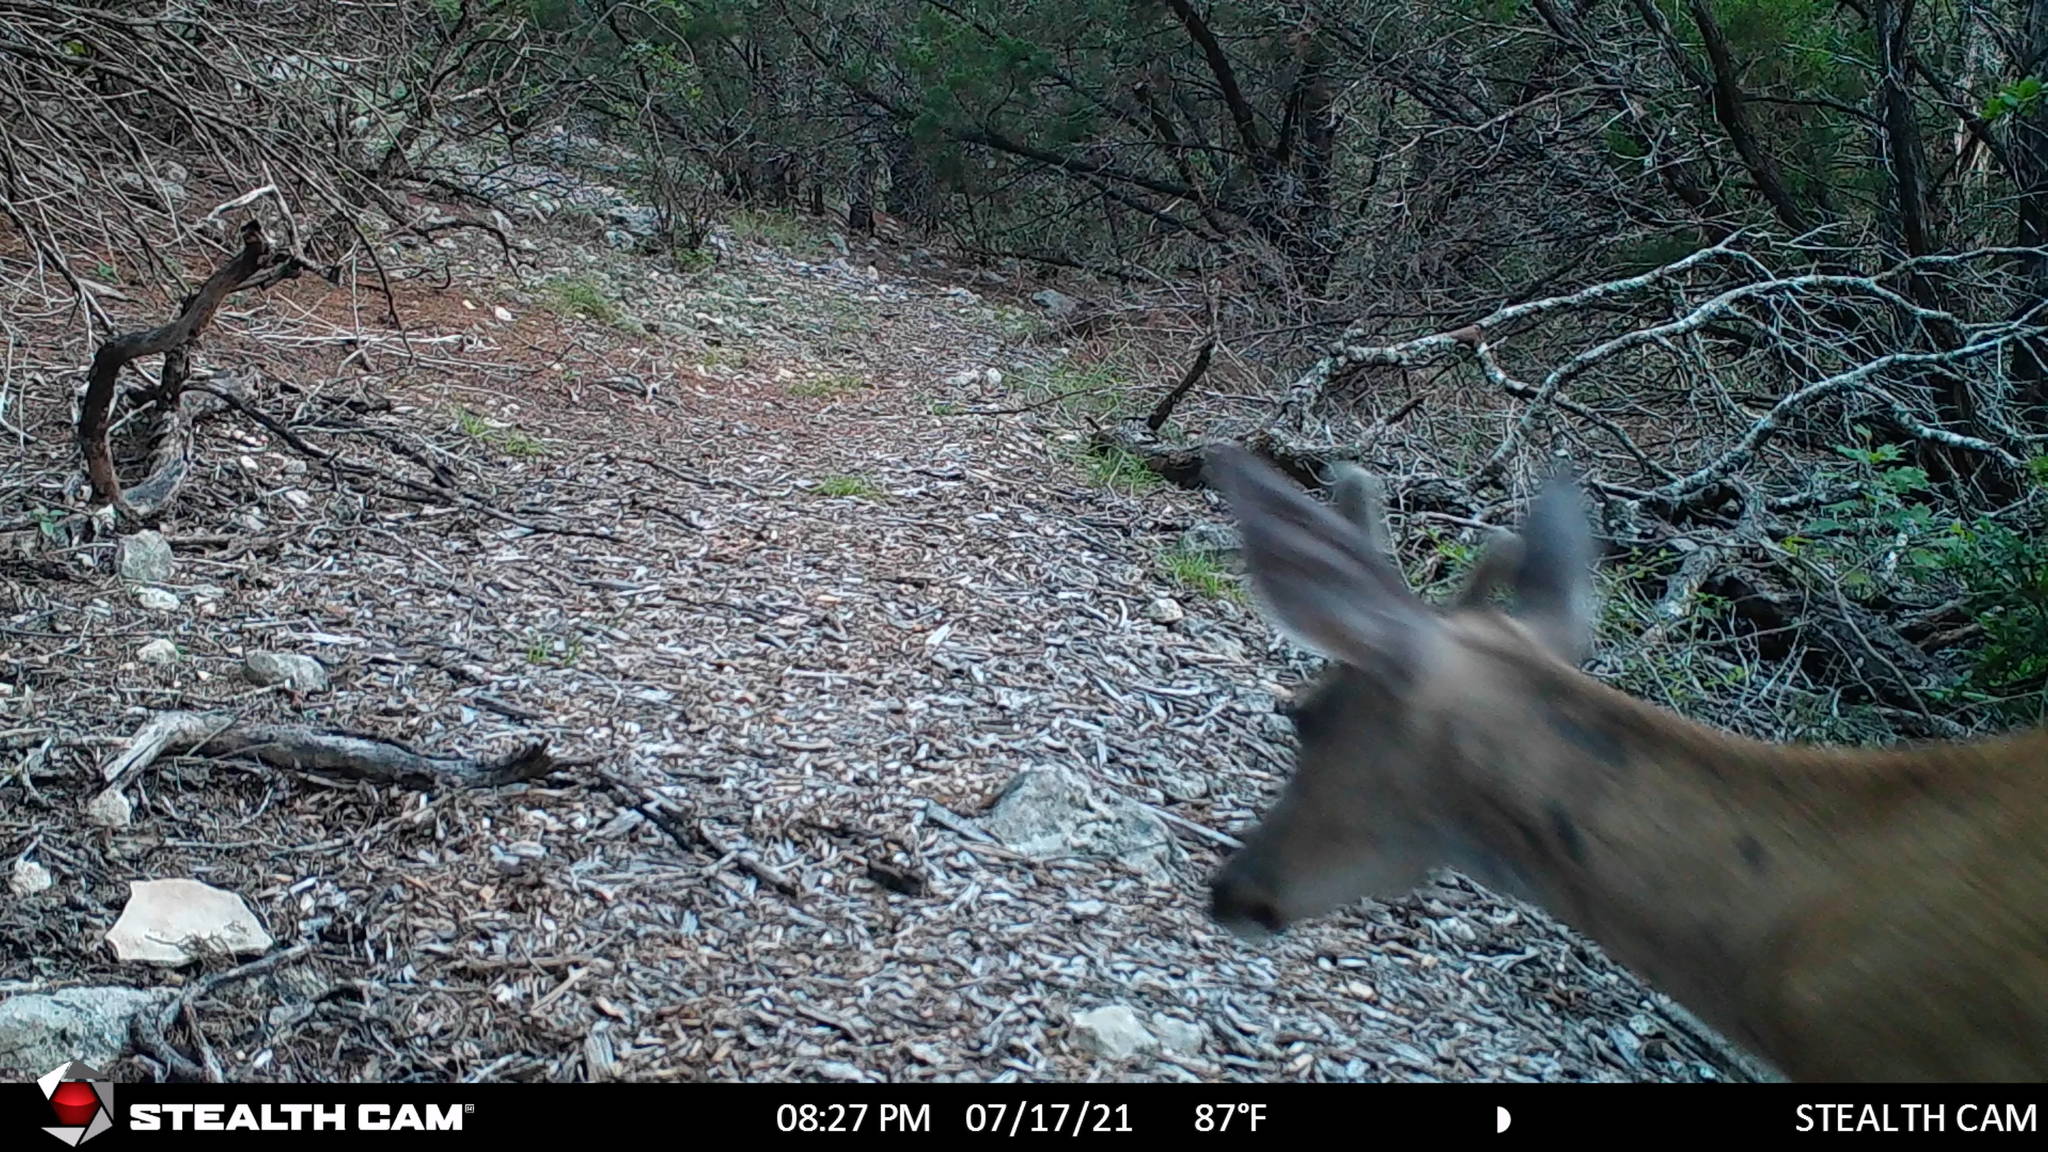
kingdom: Animalia
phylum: Chordata
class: Mammalia
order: Artiodactyla
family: Cervidae
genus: Odocoileus
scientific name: Odocoileus virginianus
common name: White-tailed deer
